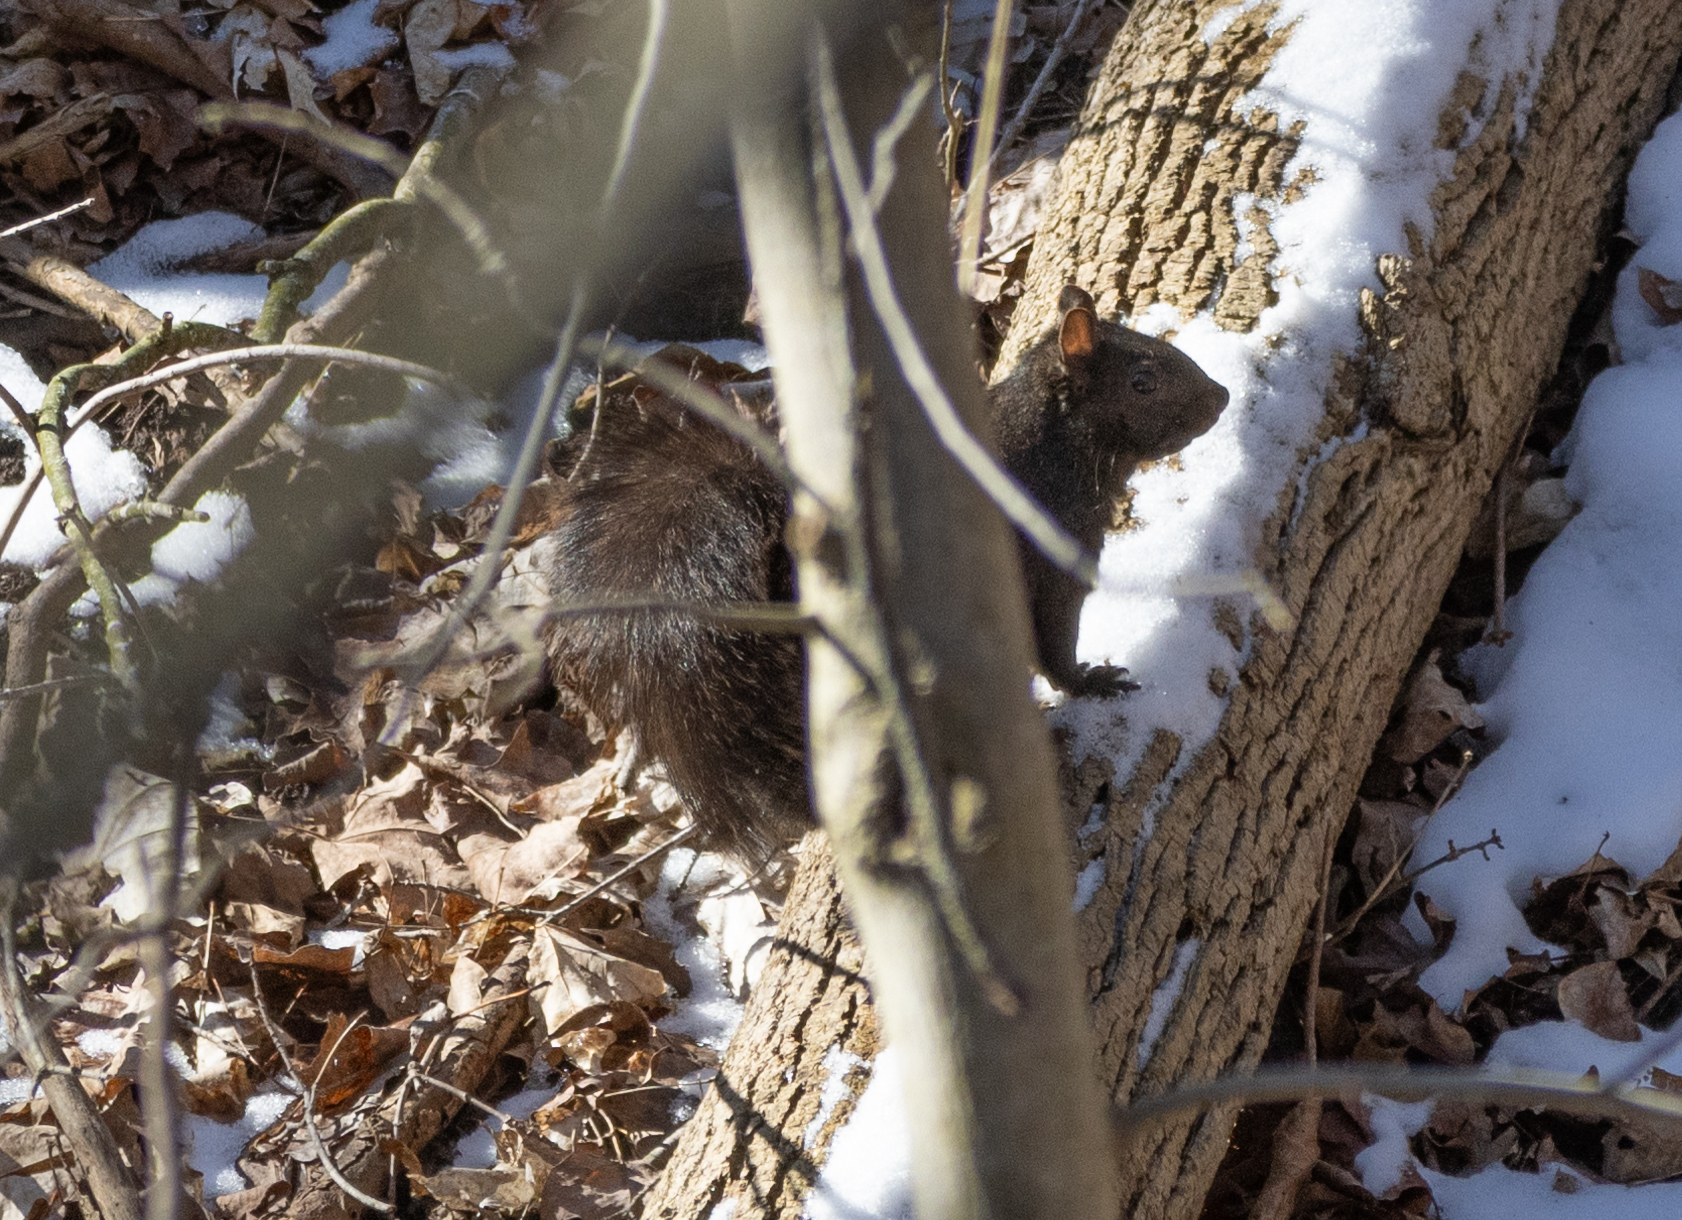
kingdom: Animalia
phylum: Chordata
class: Mammalia
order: Rodentia
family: Sciuridae
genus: Sciurus
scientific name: Sciurus carolinensis
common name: Eastern gray squirrel
